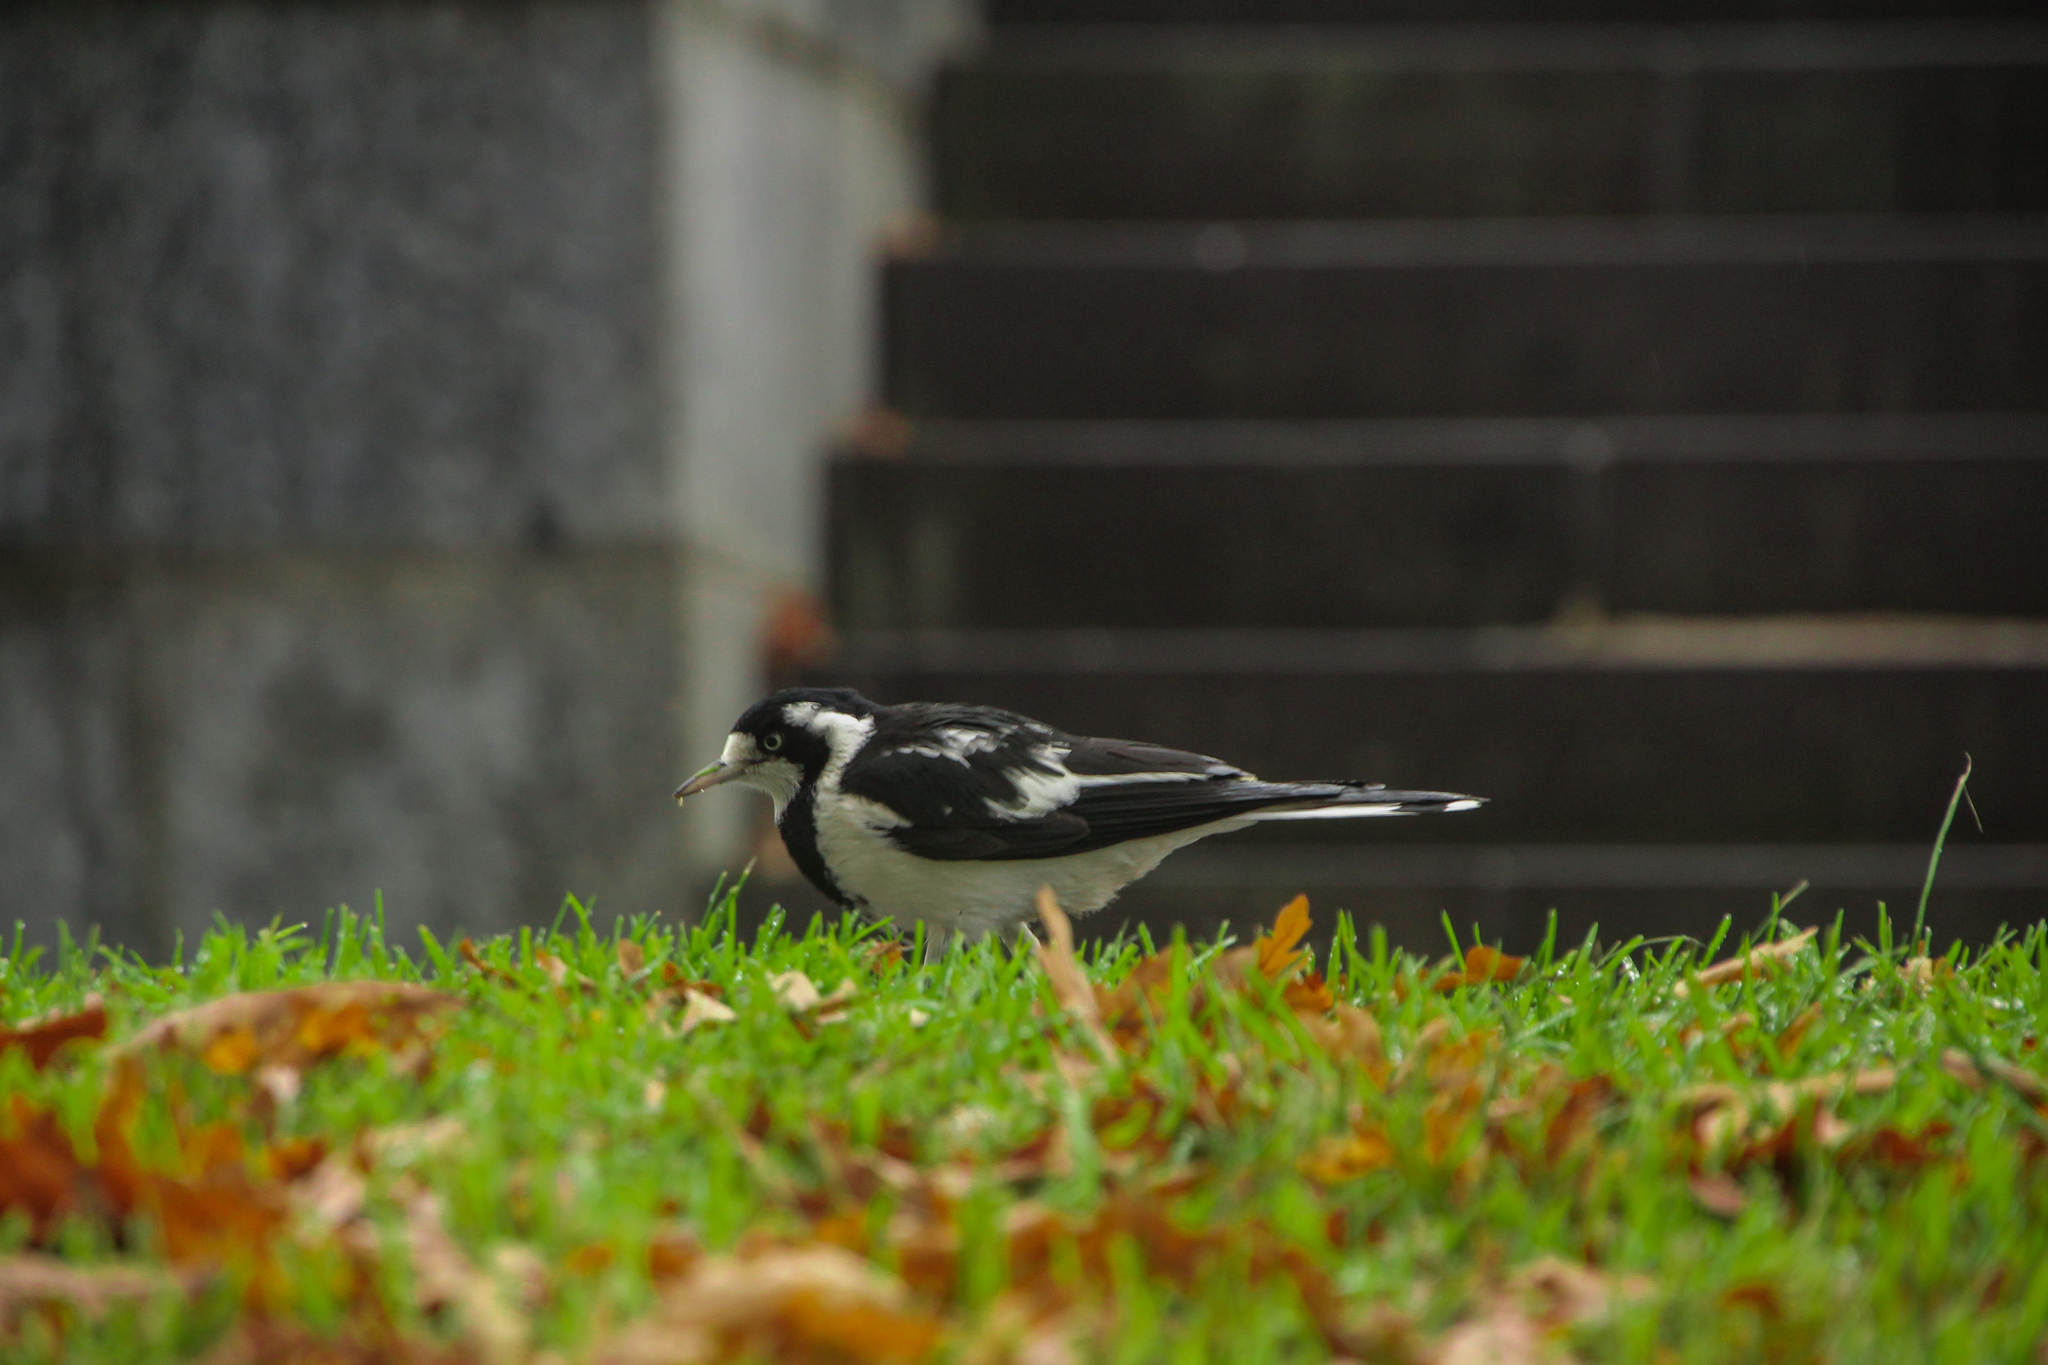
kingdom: Animalia
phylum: Chordata
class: Aves
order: Passeriformes
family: Monarchidae
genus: Grallina
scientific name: Grallina cyanoleuca
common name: Magpie-lark
